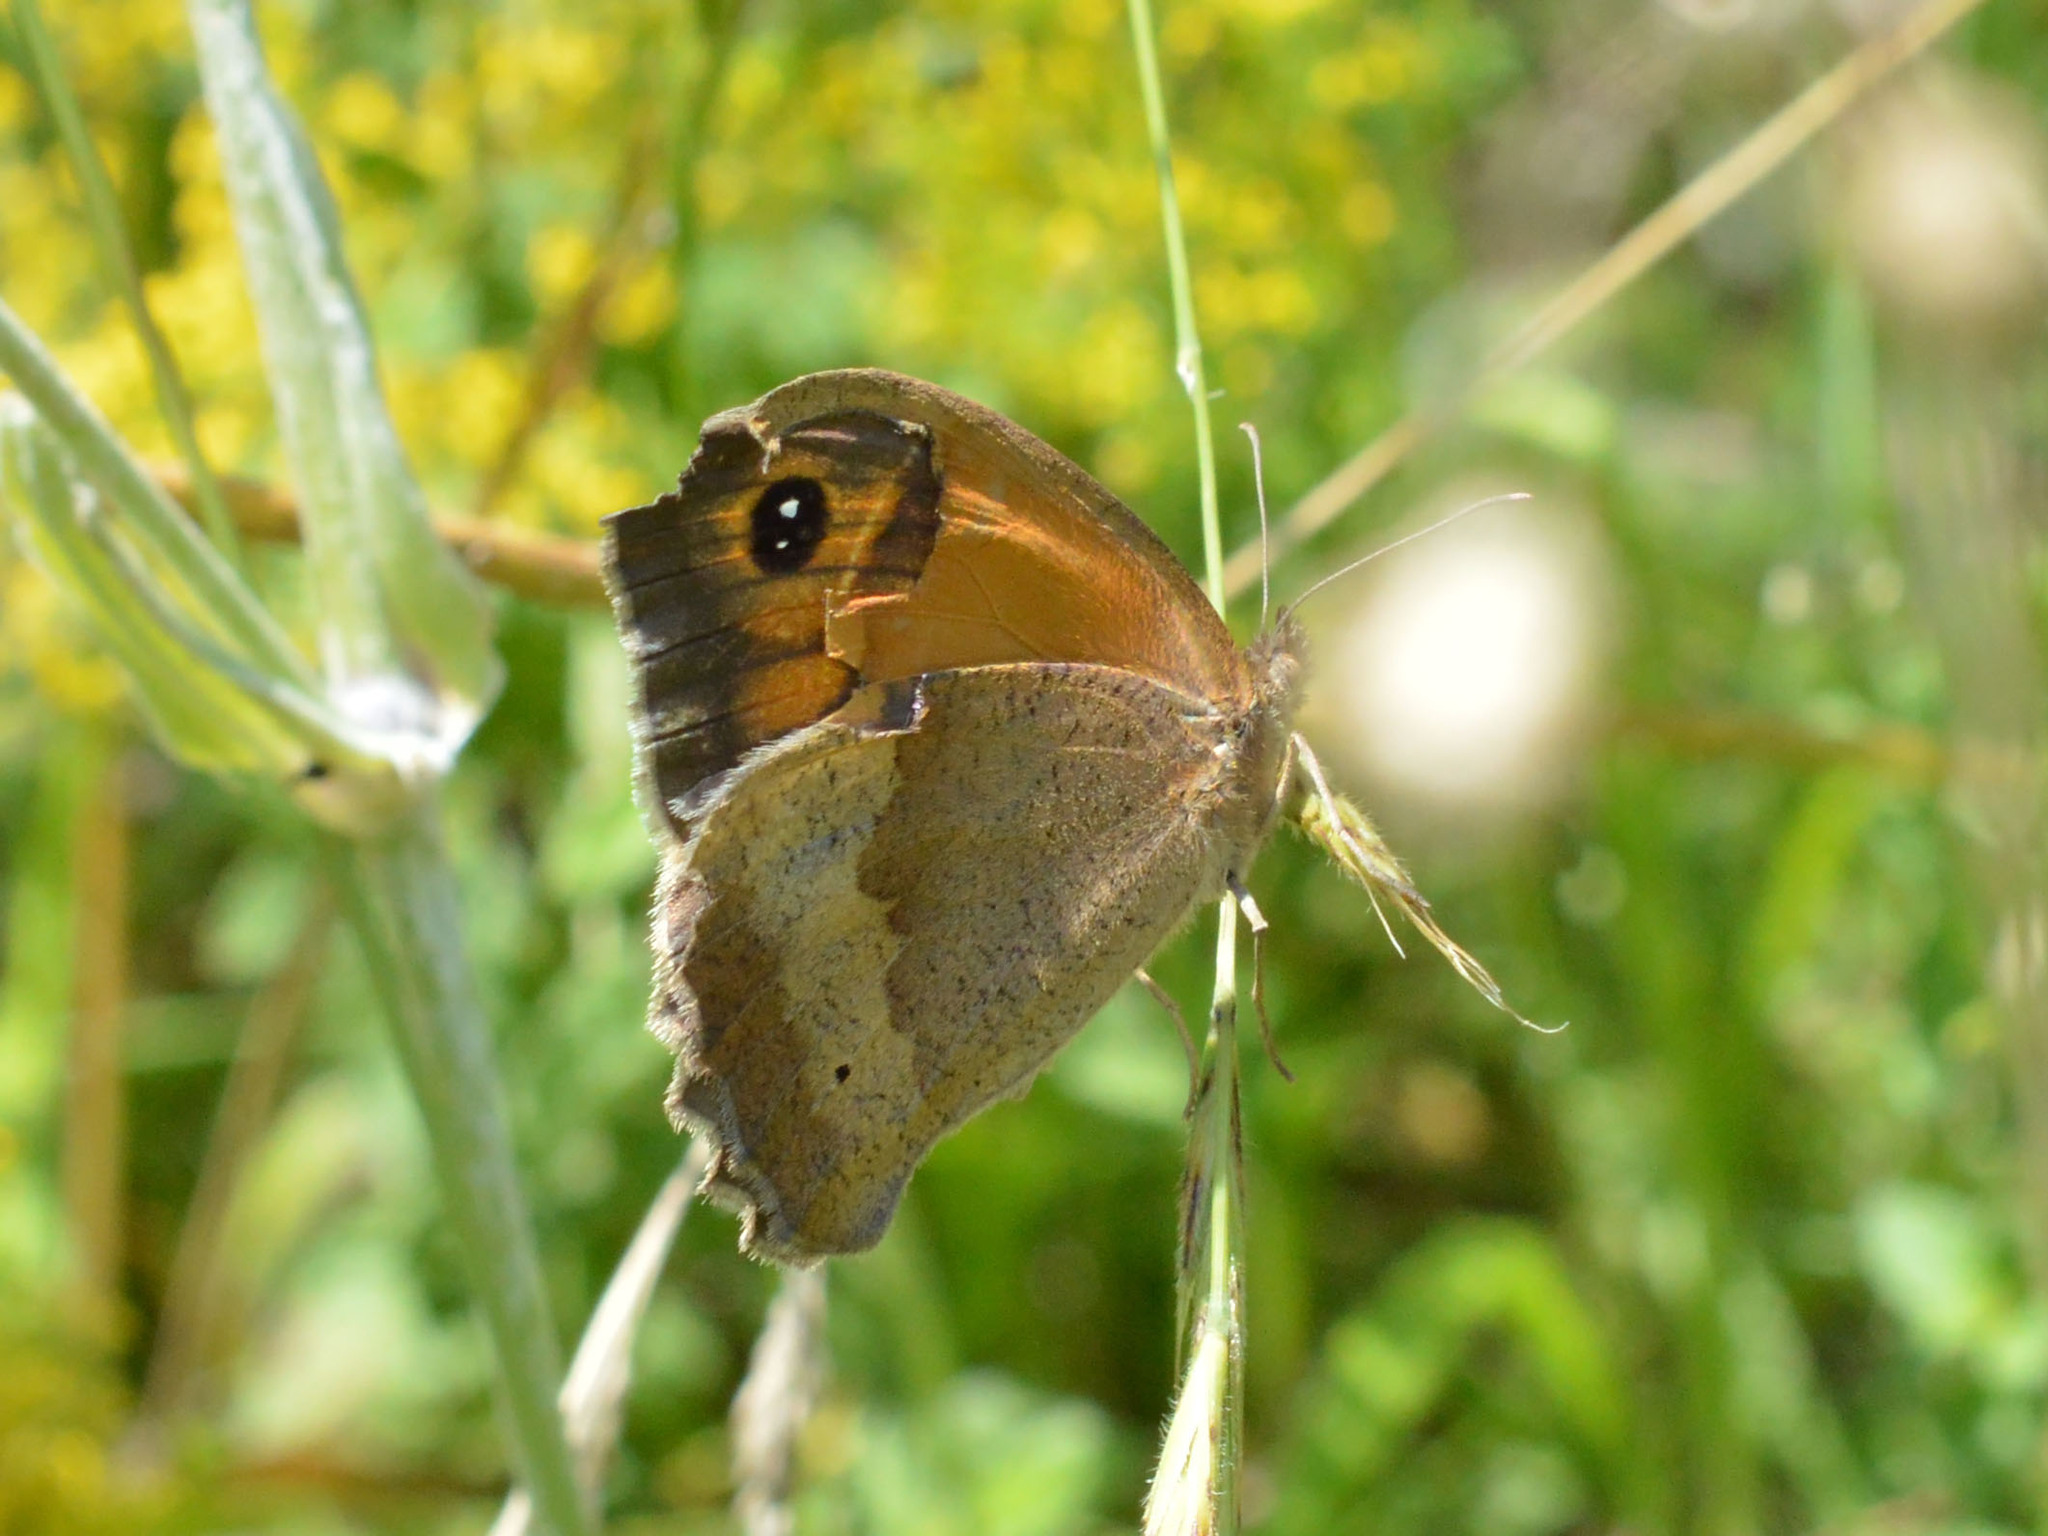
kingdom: Animalia
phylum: Arthropoda
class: Insecta
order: Lepidoptera
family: Nymphalidae
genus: Maniola
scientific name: Maniola jurtina
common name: Meadow brown
